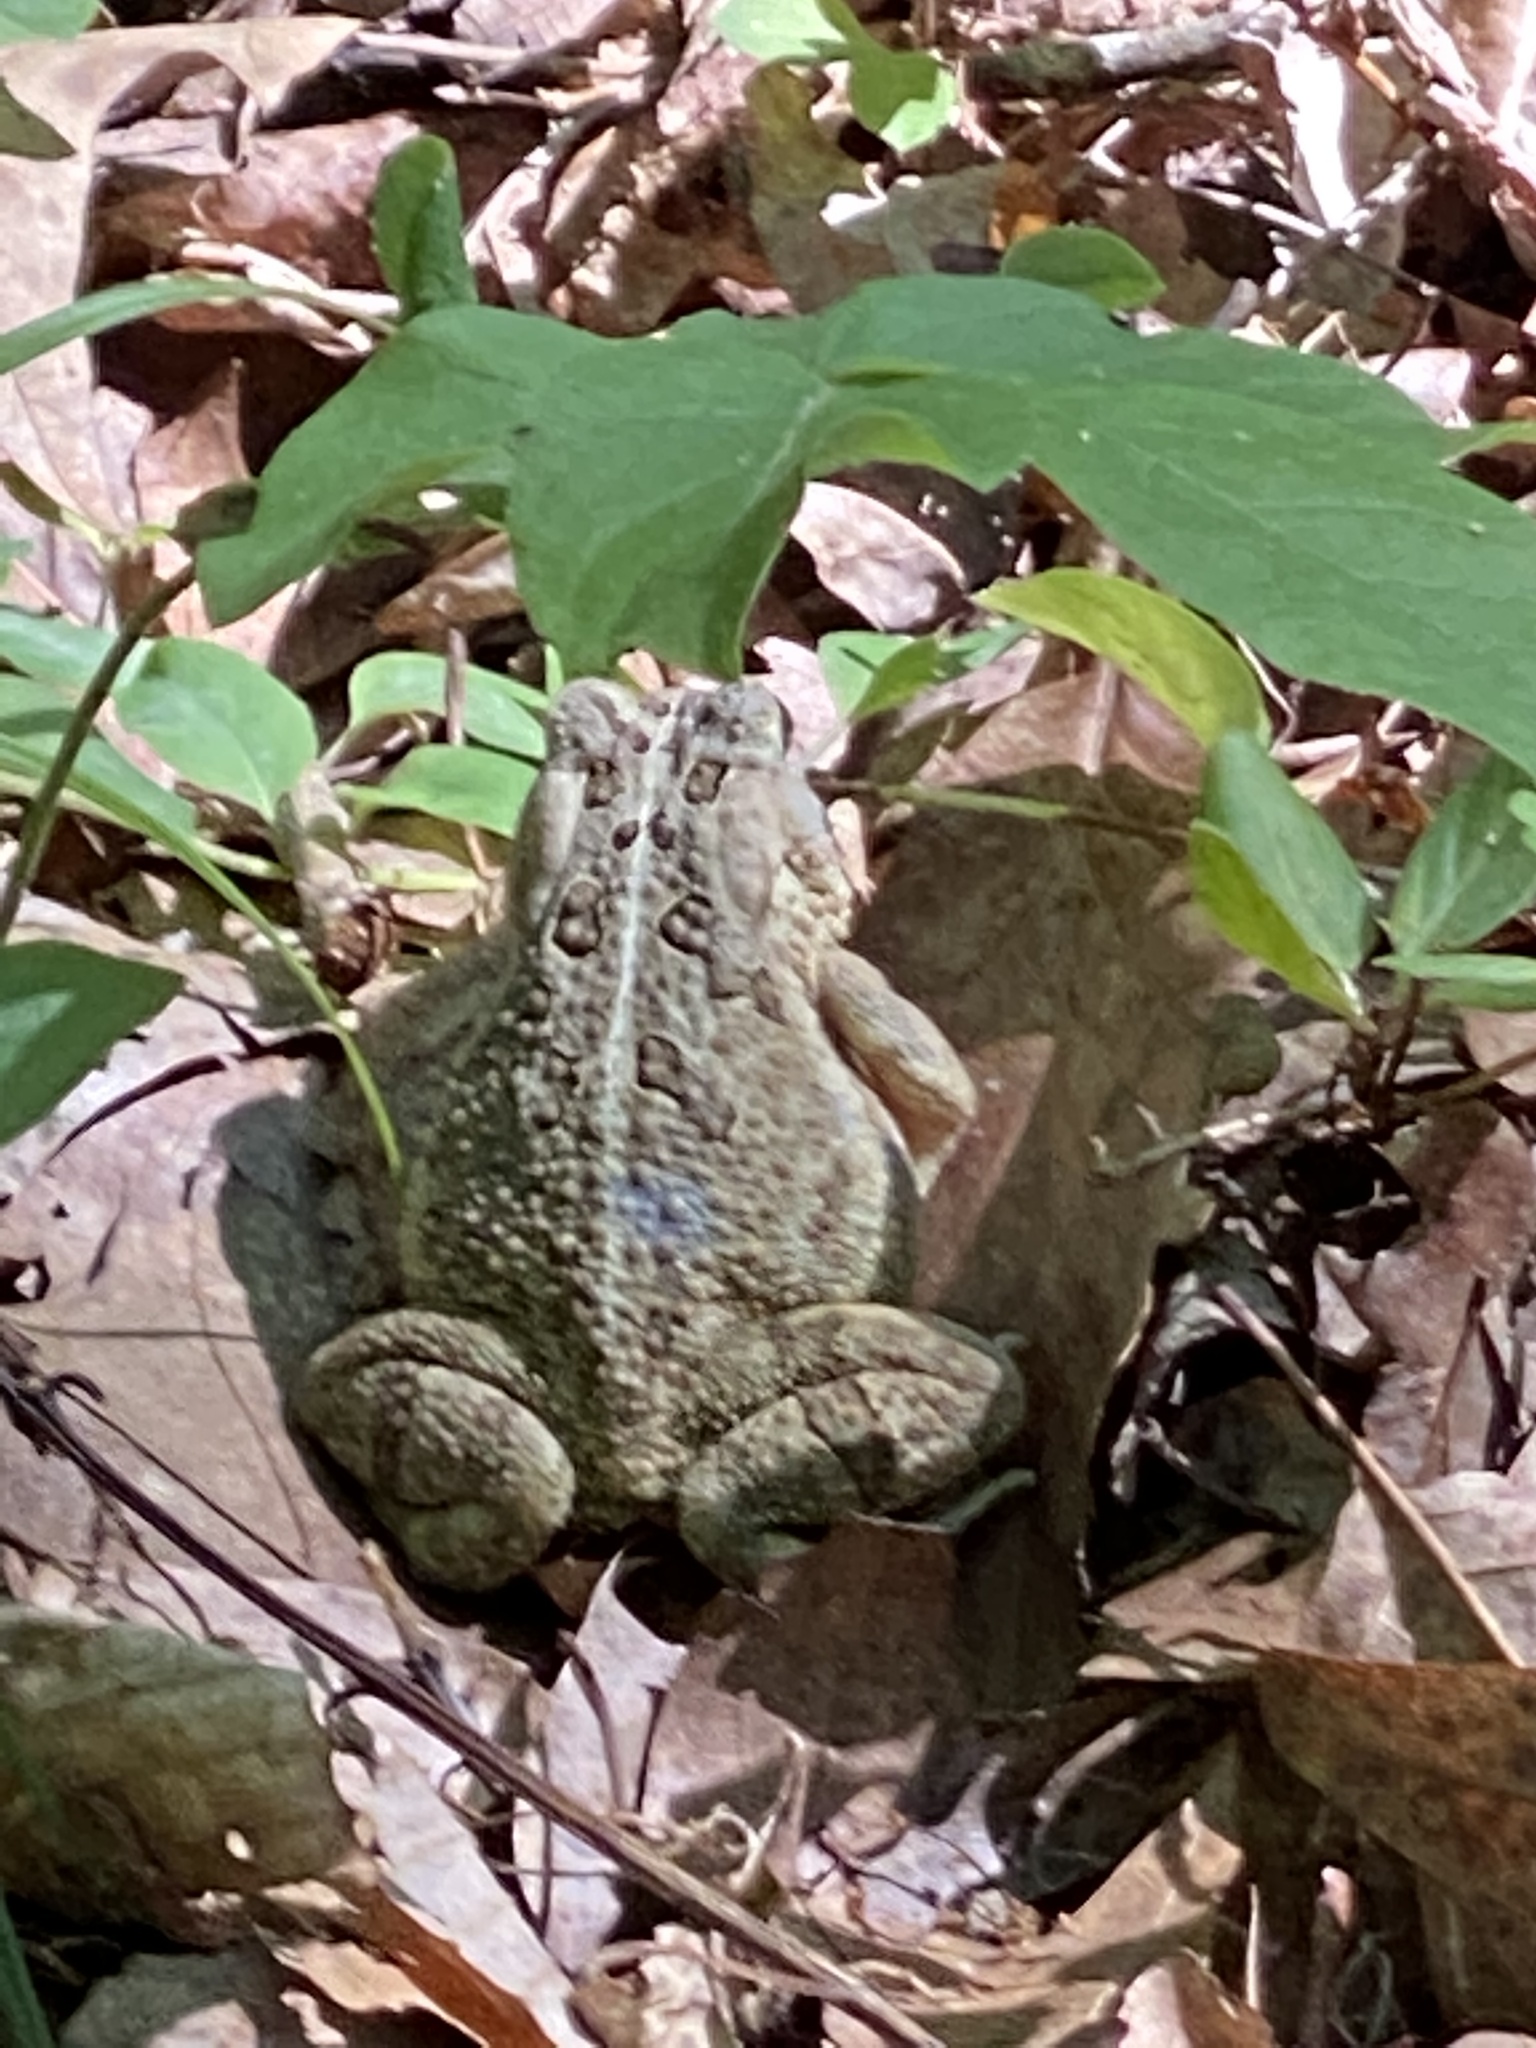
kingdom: Animalia
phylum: Chordata
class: Amphibia
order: Anura
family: Bufonidae
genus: Anaxyrus
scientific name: Anaxyrus fowleri
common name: Fowler's toad
